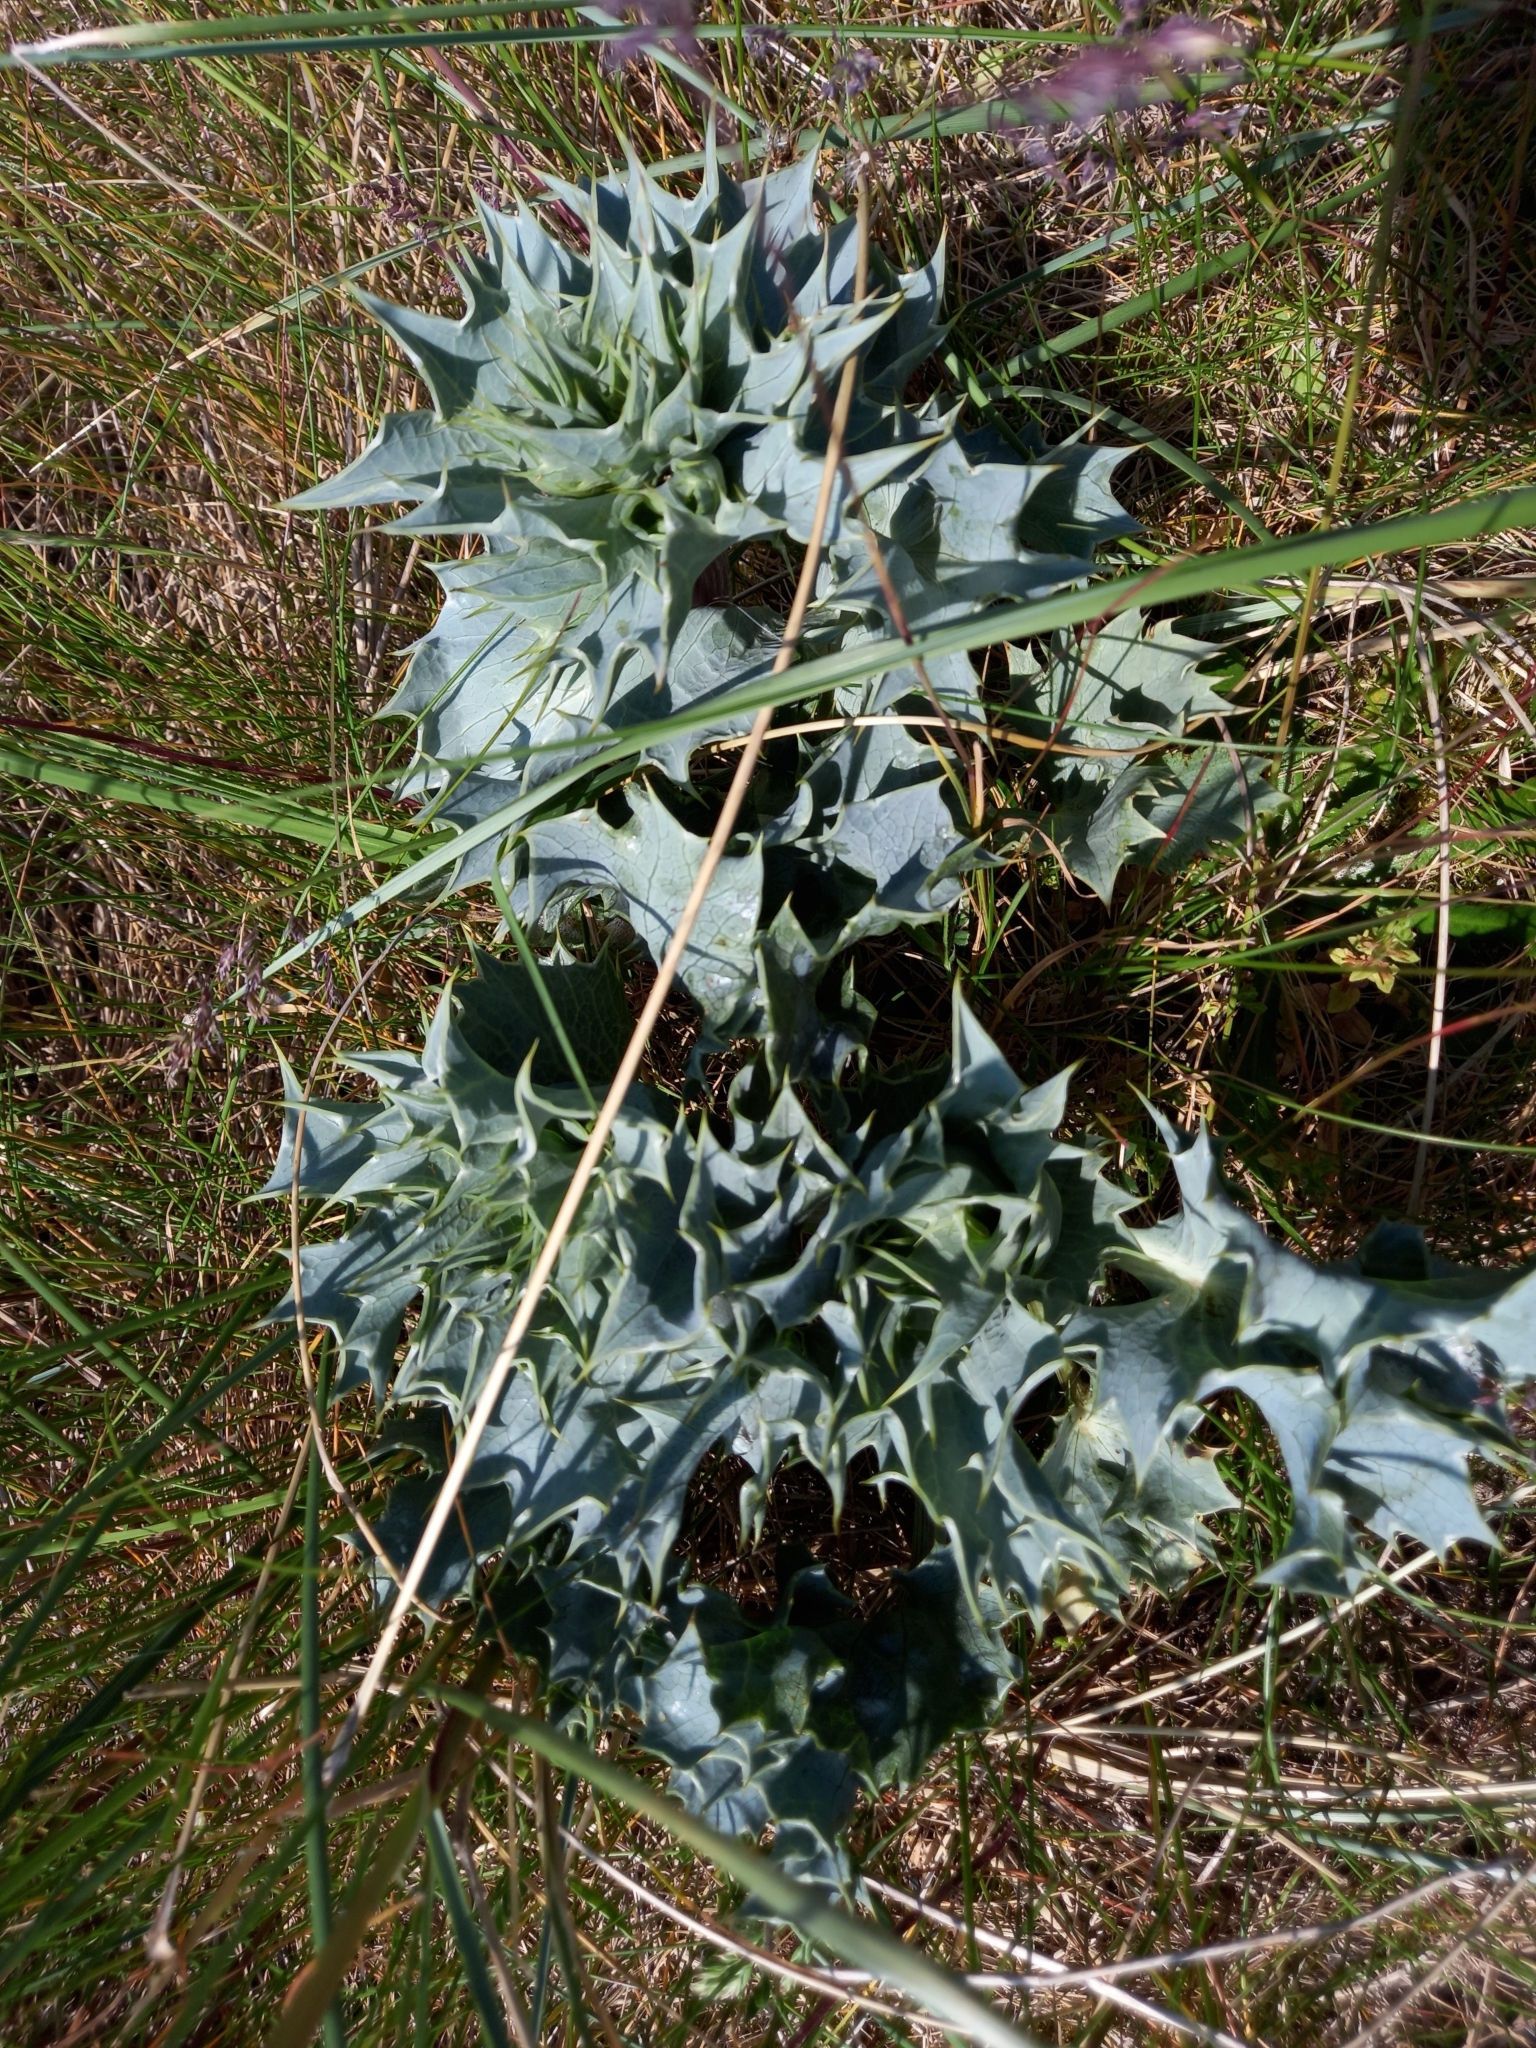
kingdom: Plantae
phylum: Tracheophyta
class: Magnoliopsida
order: Apiales
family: Apiaceae
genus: Eryngium
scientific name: Eryngium maritimum
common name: Sea-holly
